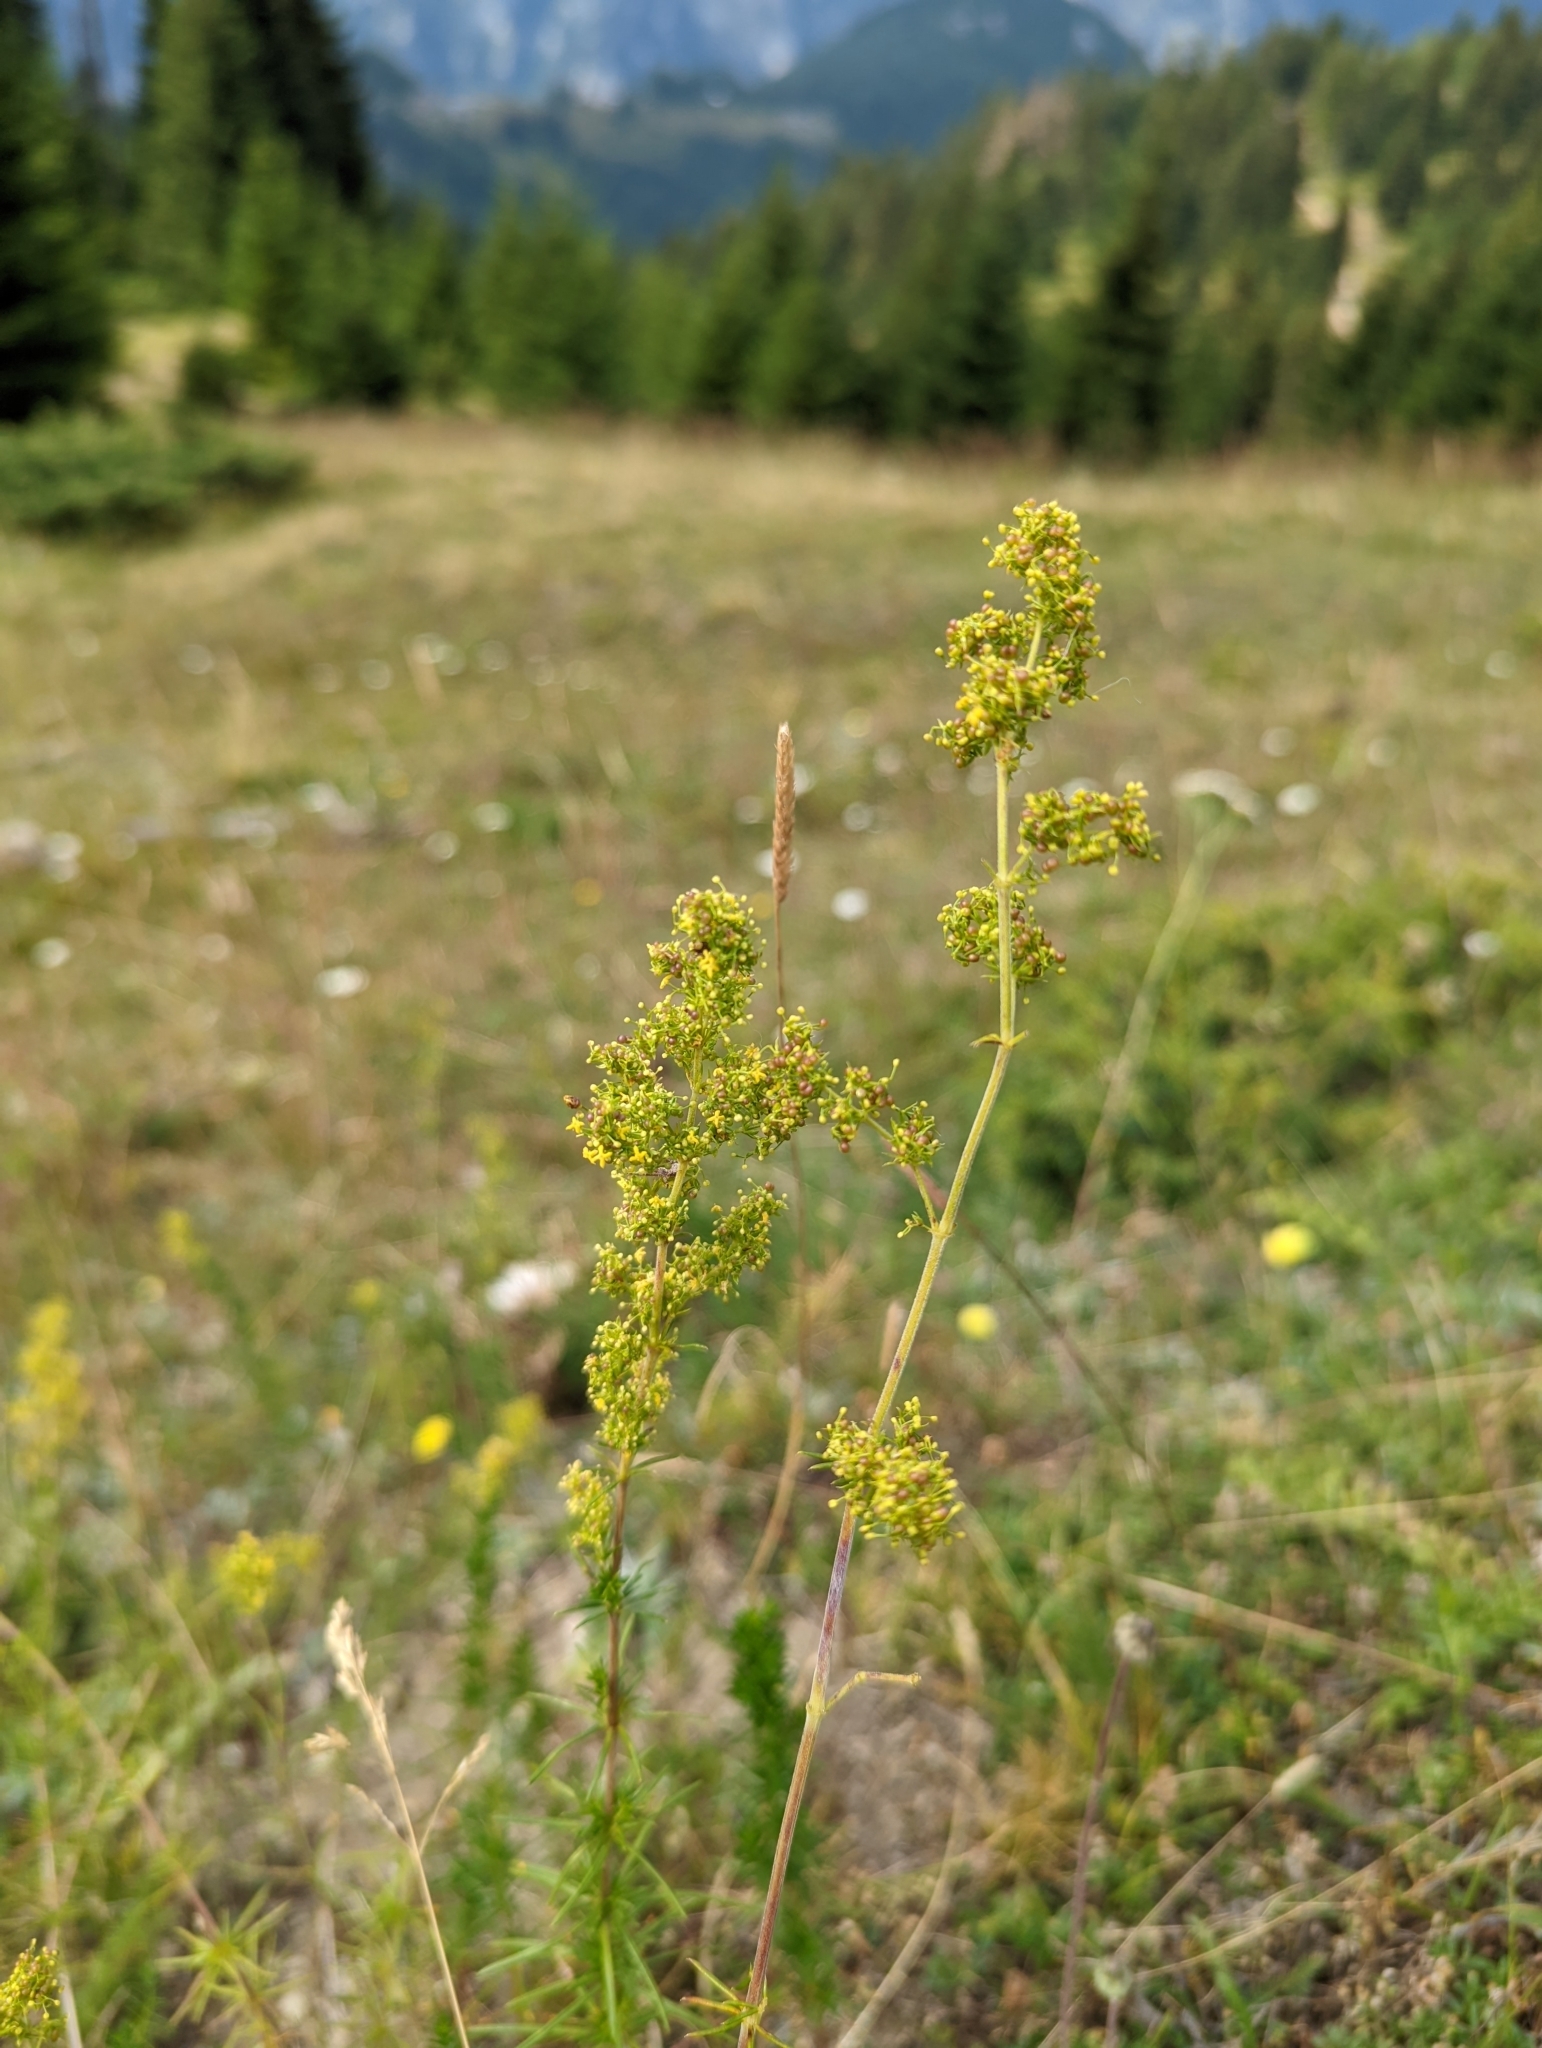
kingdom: Plantae
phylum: Tracheophyta
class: Magnoliopsida
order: Gentianales
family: Rubiaceae
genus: Galium
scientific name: Galium verum
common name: Lady's bedstraw
